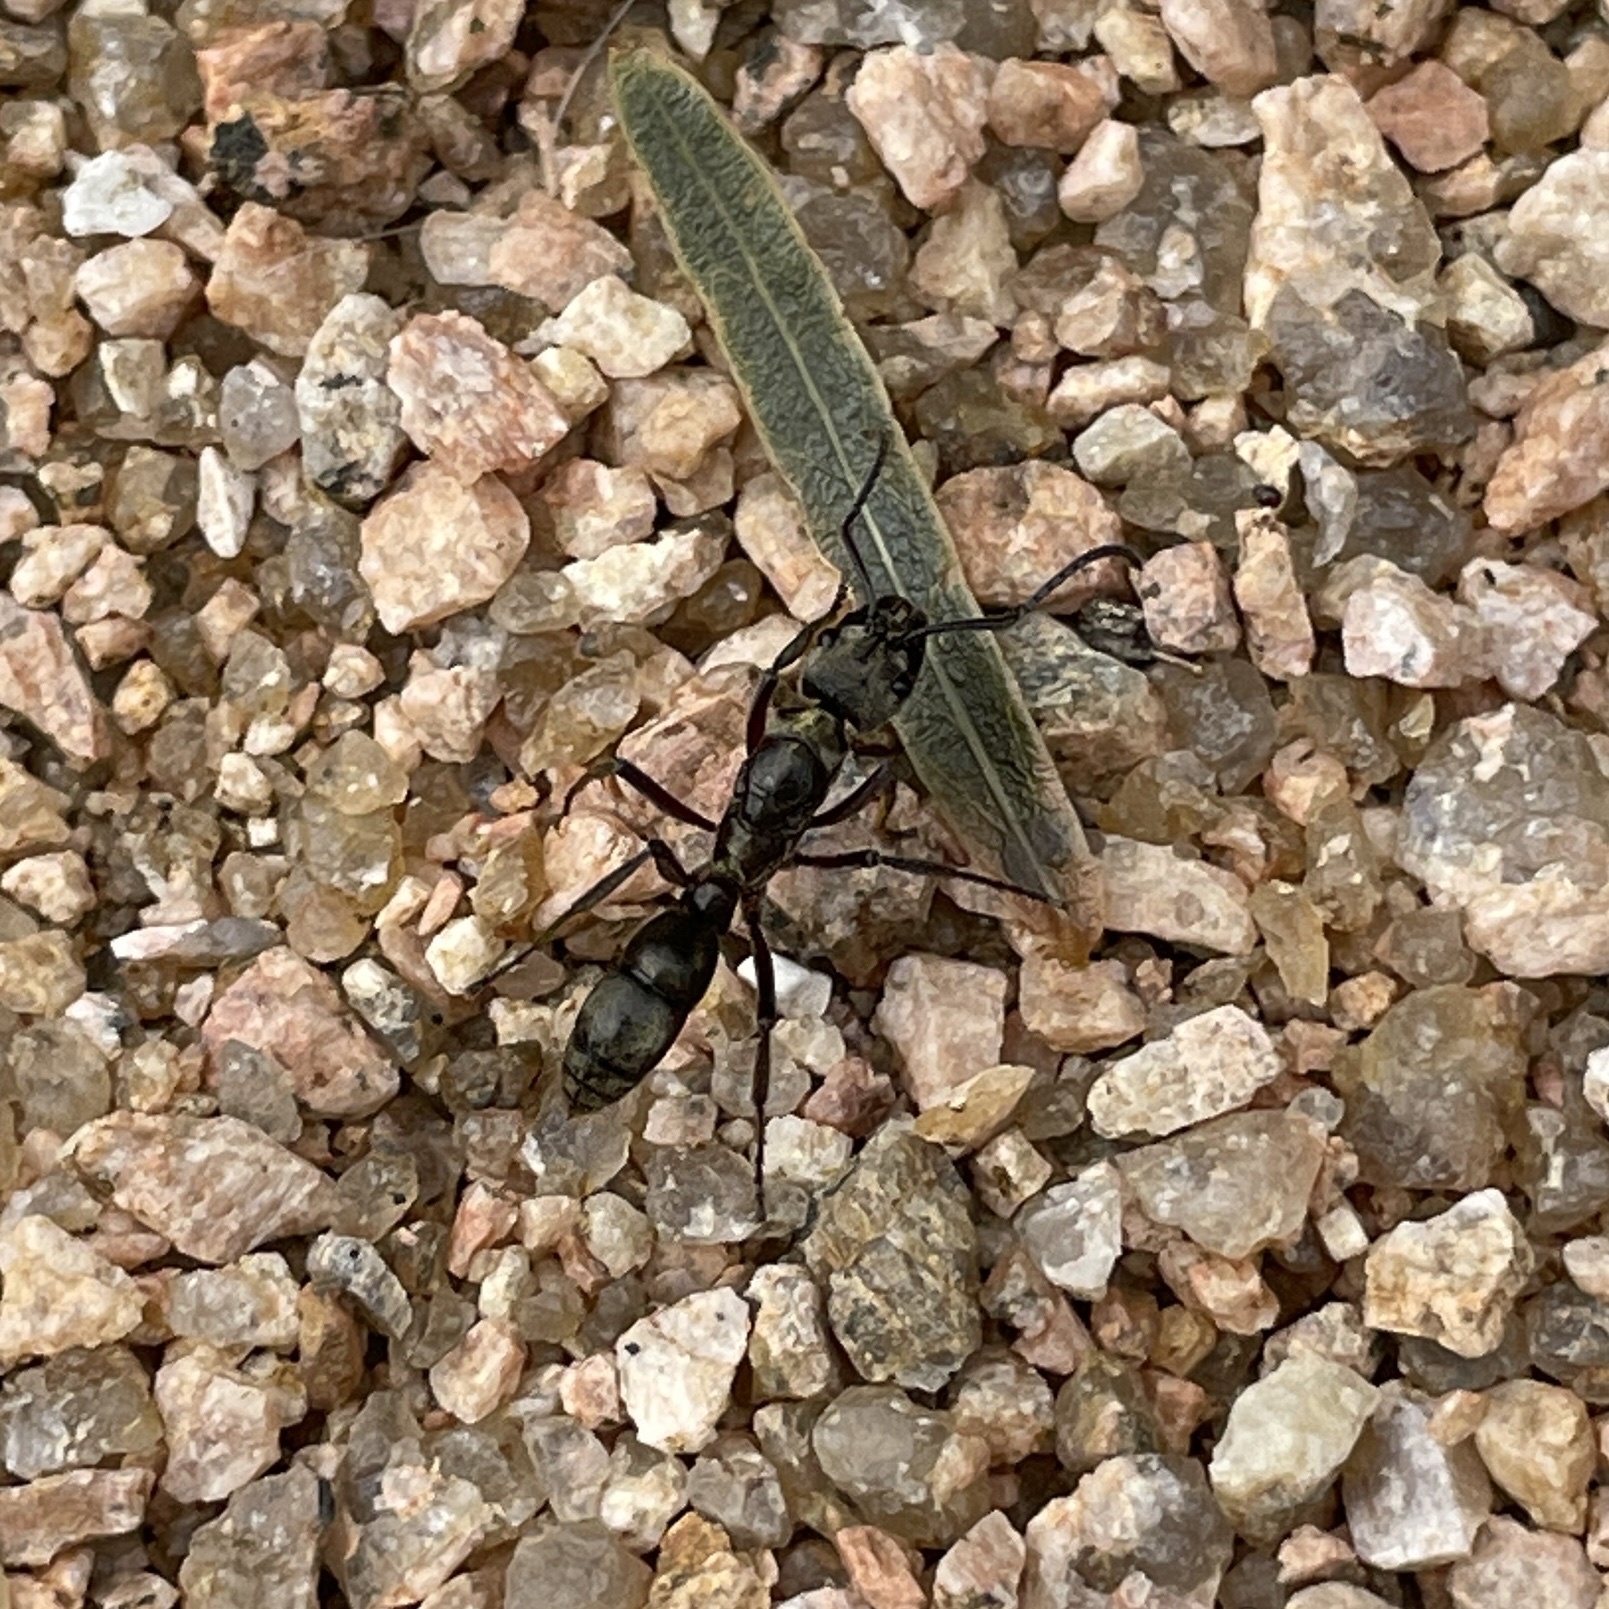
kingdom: Animalia
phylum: Arthropoda
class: Insecta
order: Hymenoptera
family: Formicidae
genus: Pachycondyla
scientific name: Pachycondyla villosa
